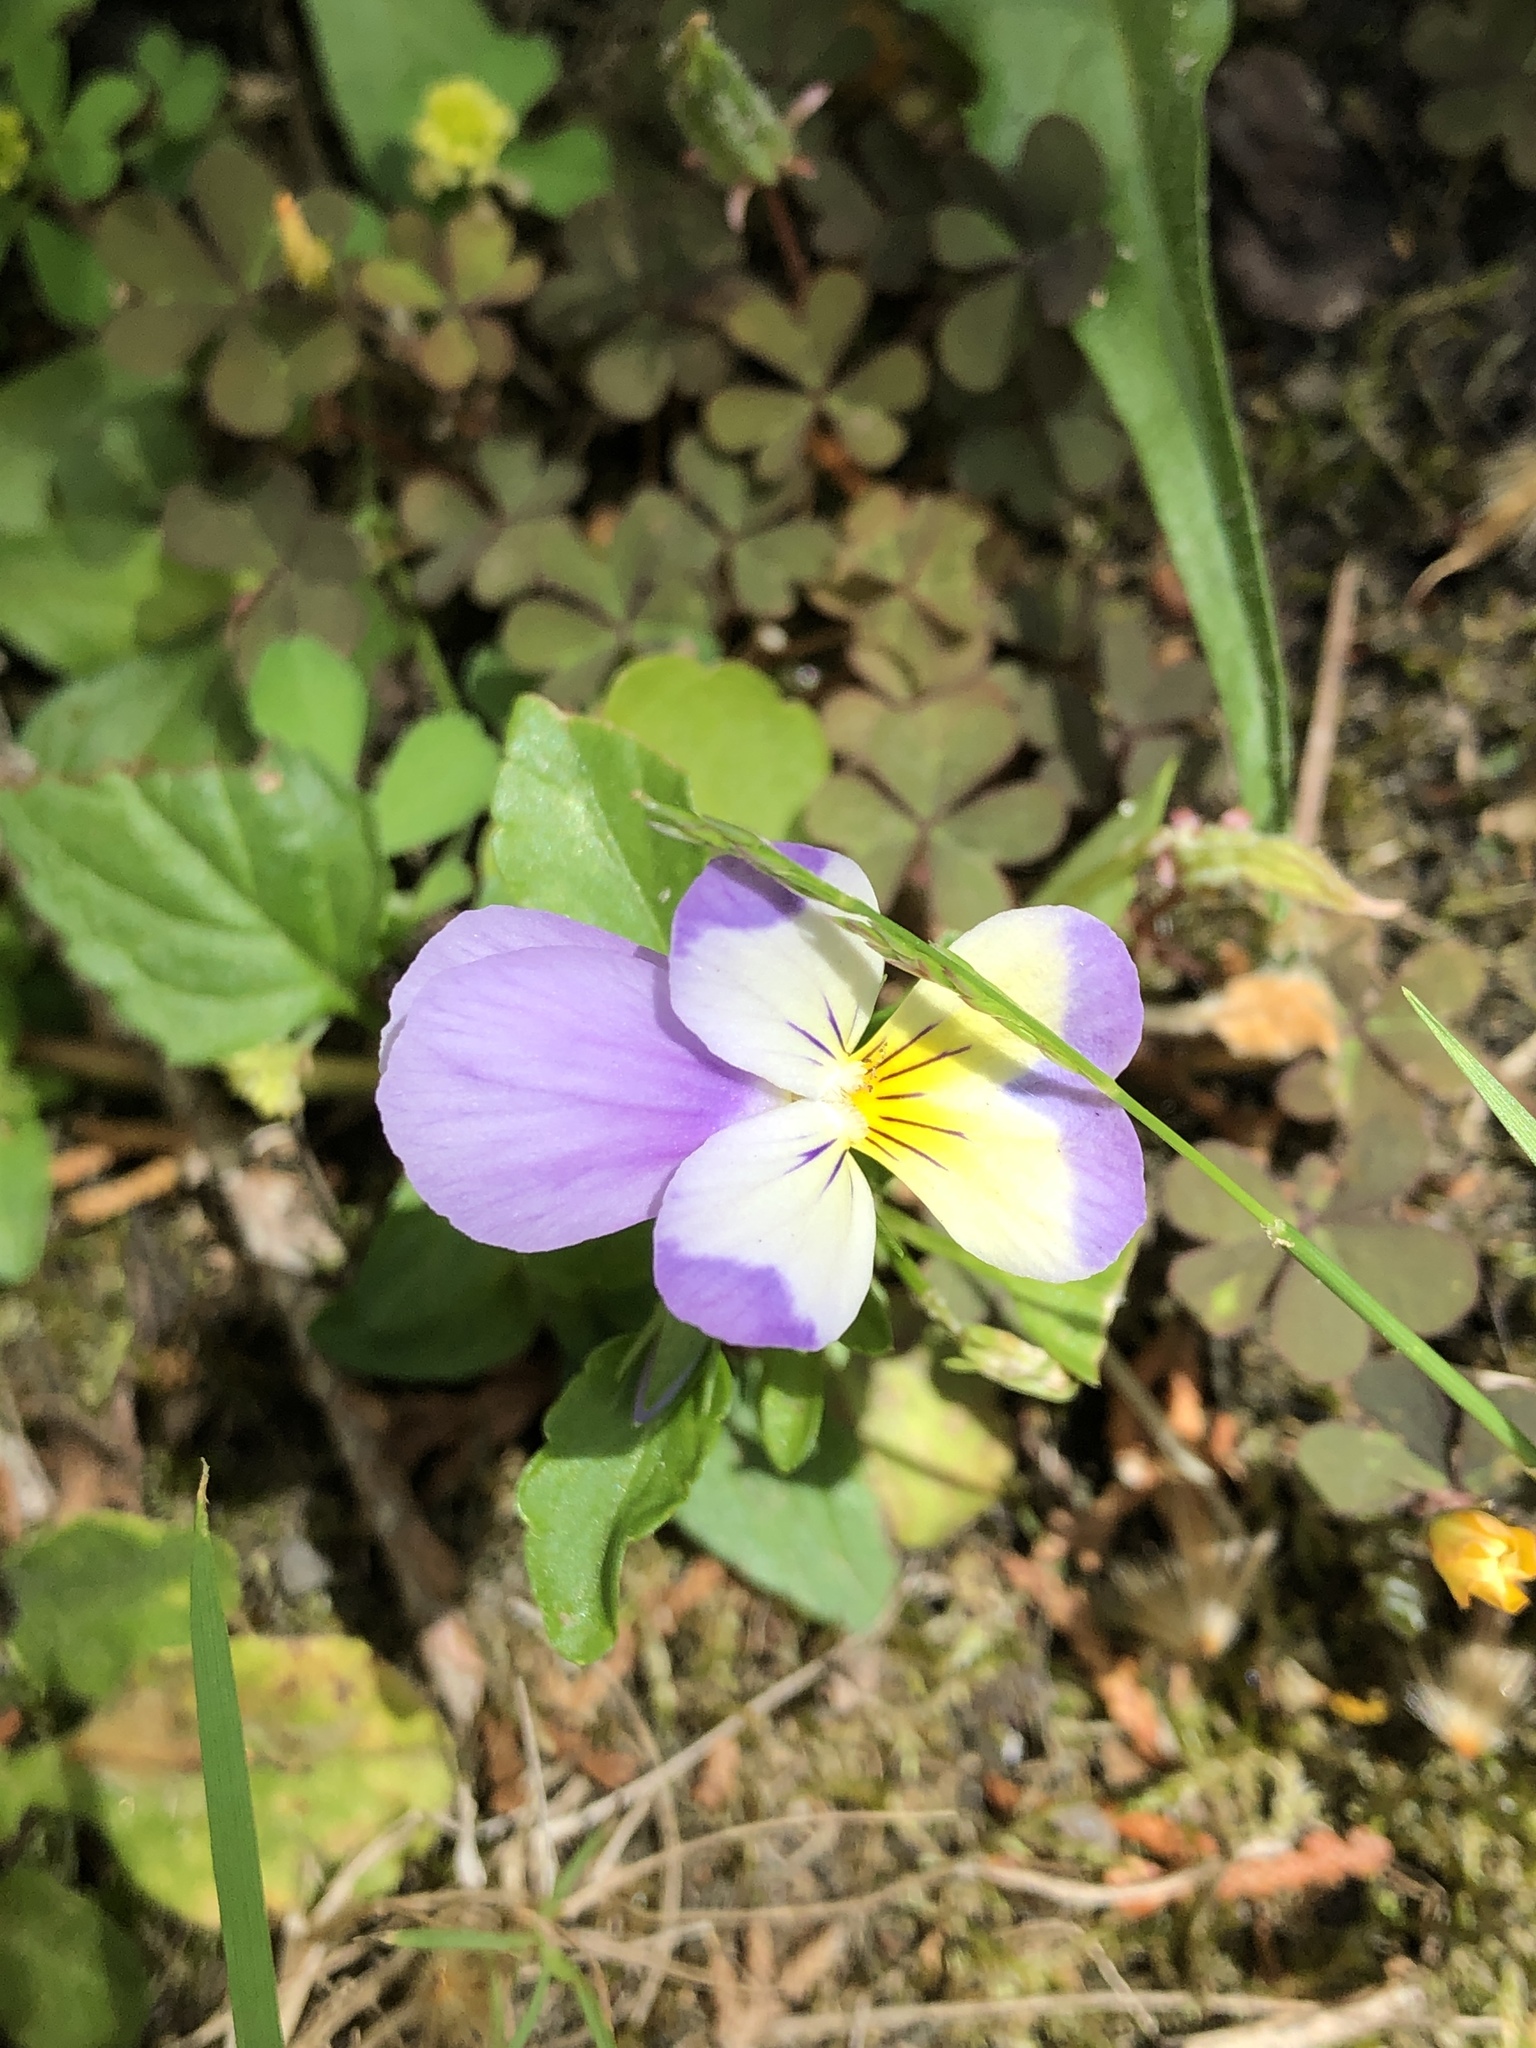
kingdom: Plantae
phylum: Tracheophyta
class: Magnoliopsida
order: Malpighiales
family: Violaceae
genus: Viola
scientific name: Viola williamsii
